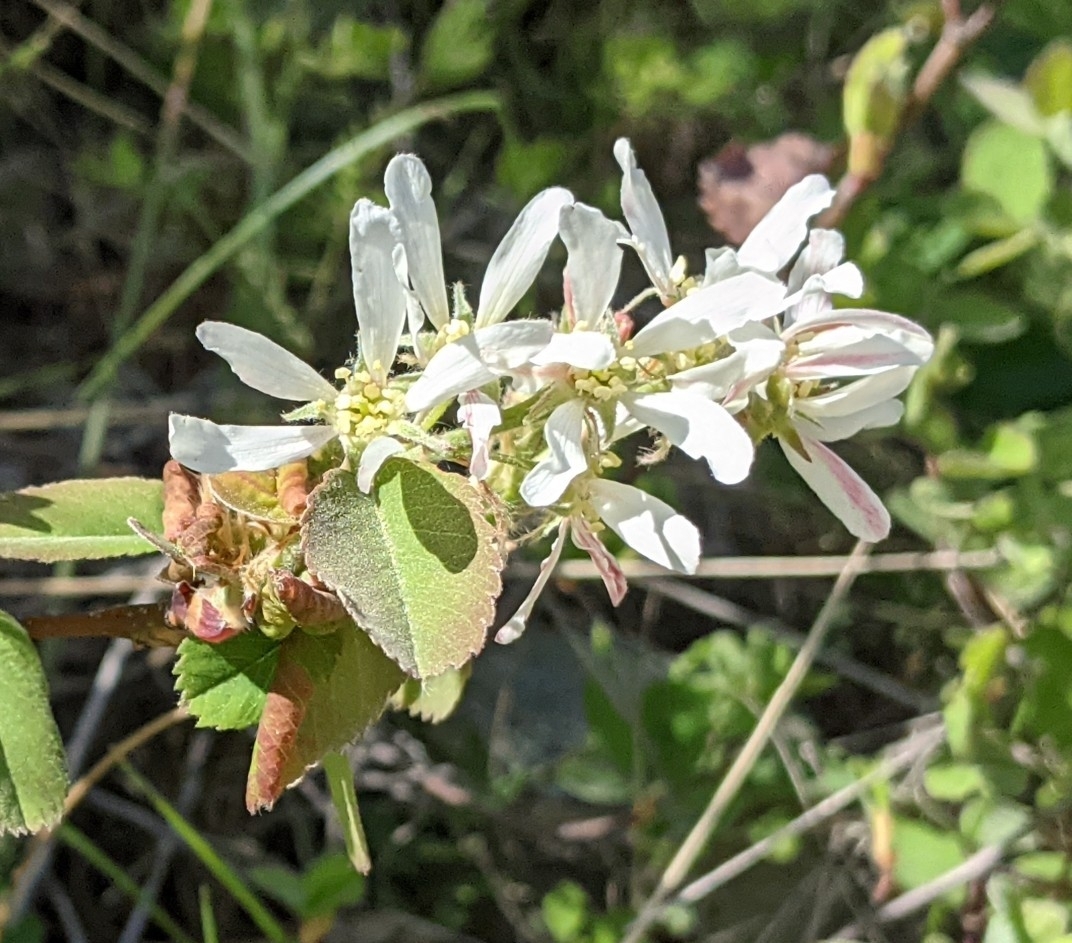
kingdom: Plantae
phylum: Tracheophyta
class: Magnoliopsida
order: Rosales
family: Rosaceae
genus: Amelanchier
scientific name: Amelanchier alnifolia
